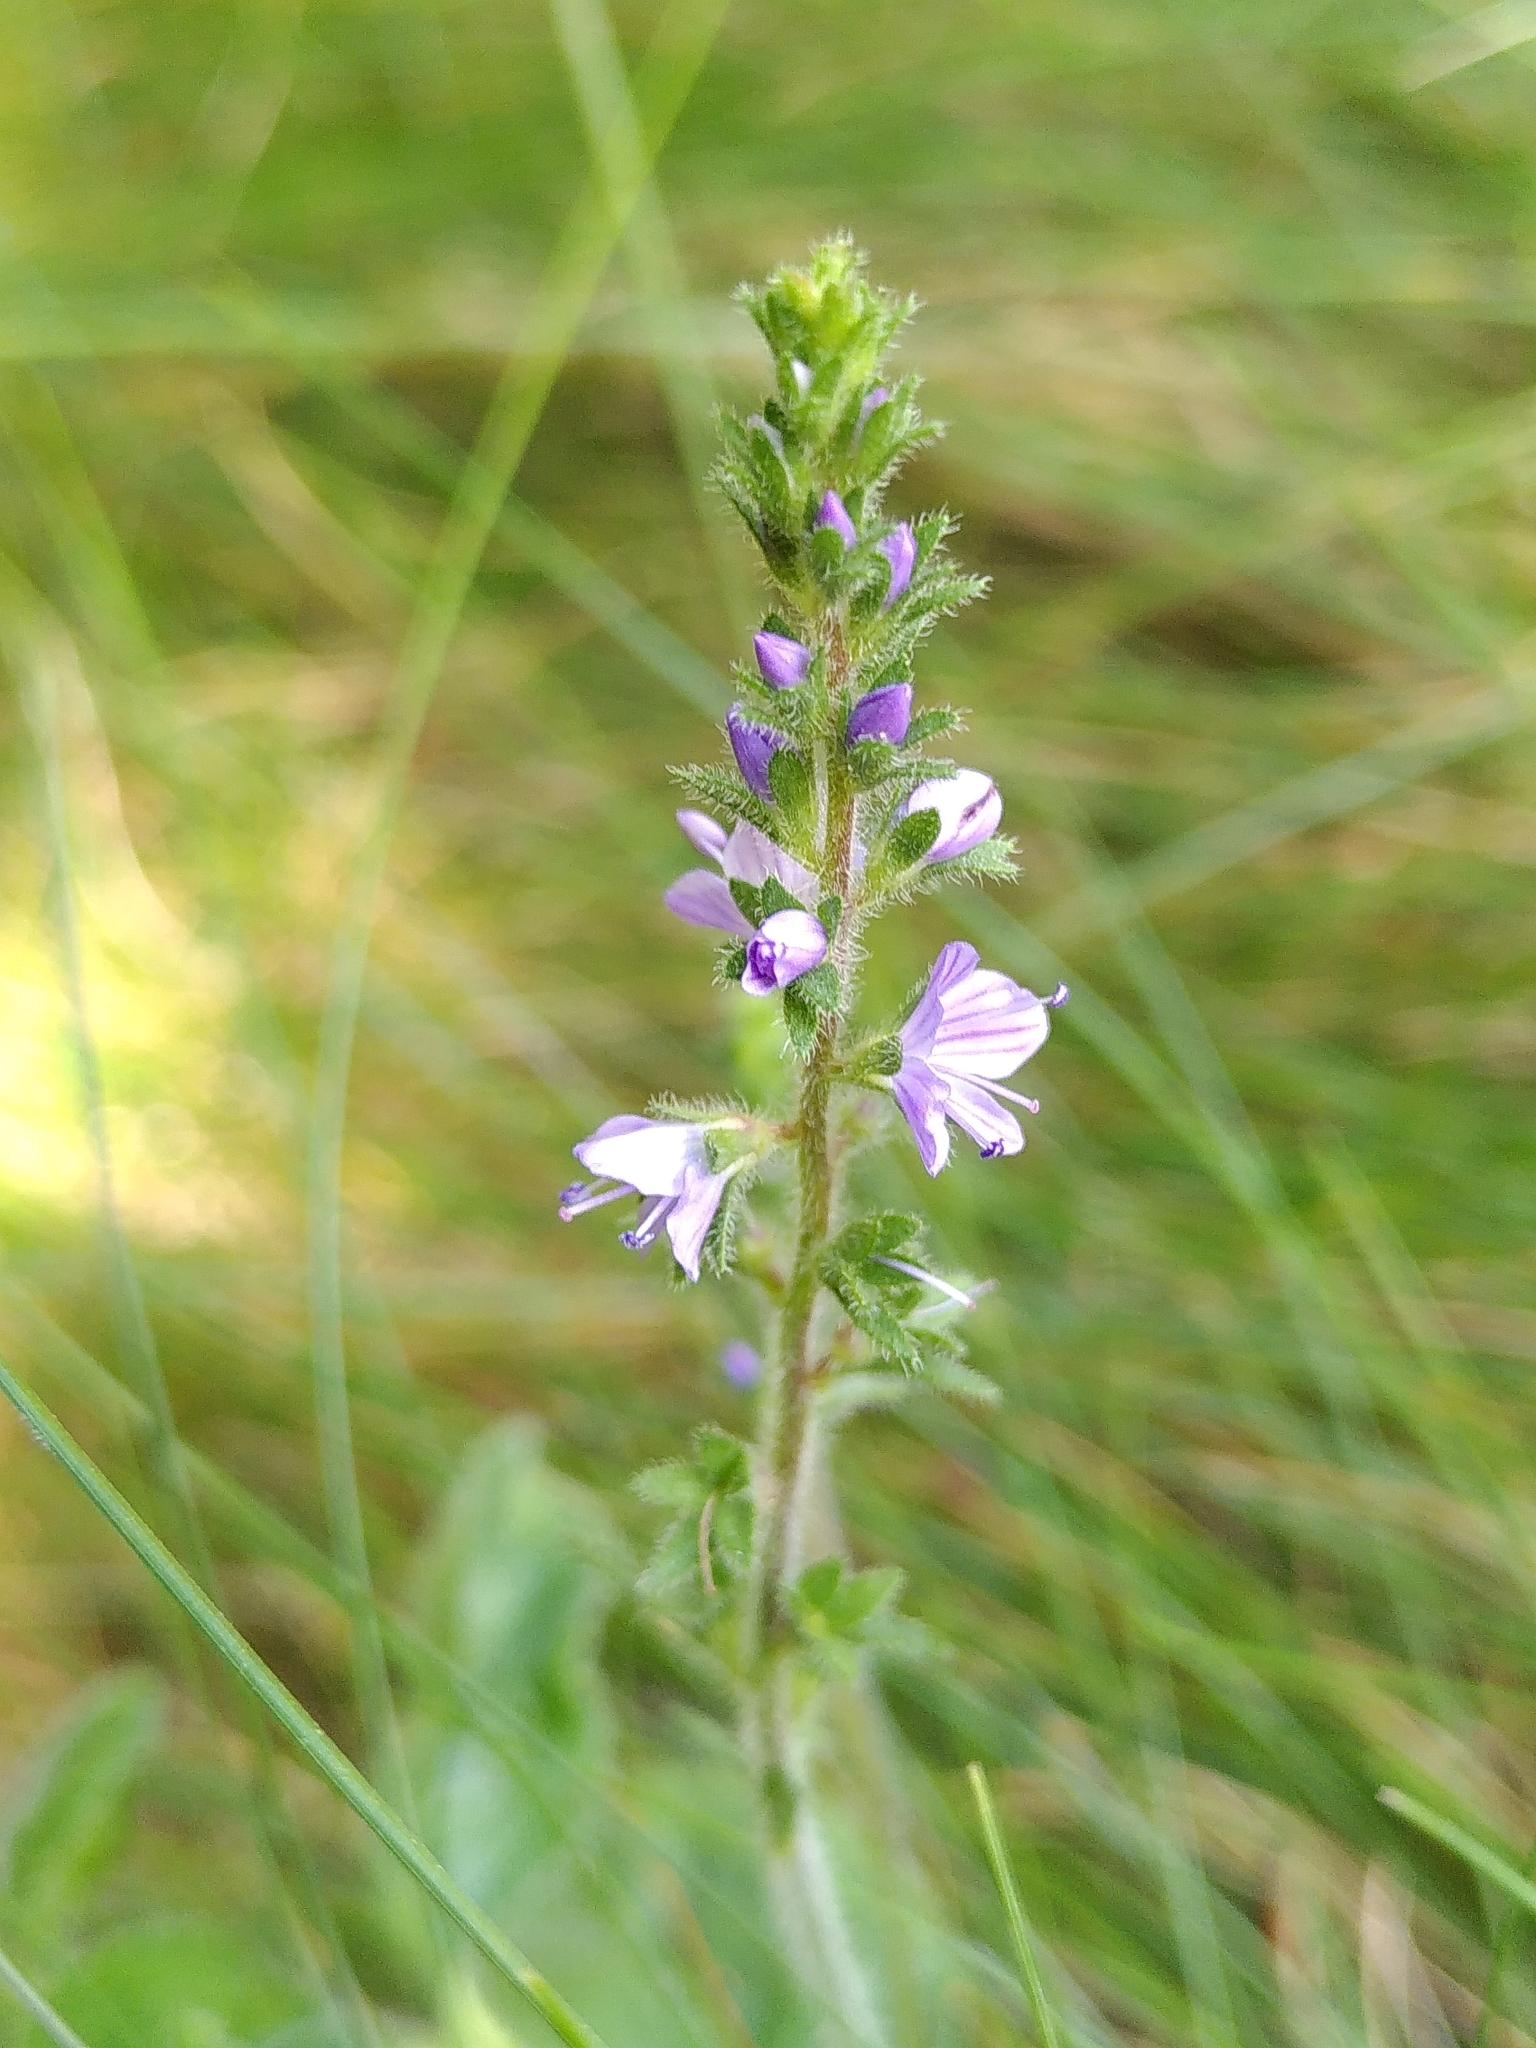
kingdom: Plantae
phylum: Tracheophyta
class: Magnoliopsida
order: Lamiales
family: Plantaginaceae
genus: Veronica
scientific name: Veronica officinalis
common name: Common speedwell
